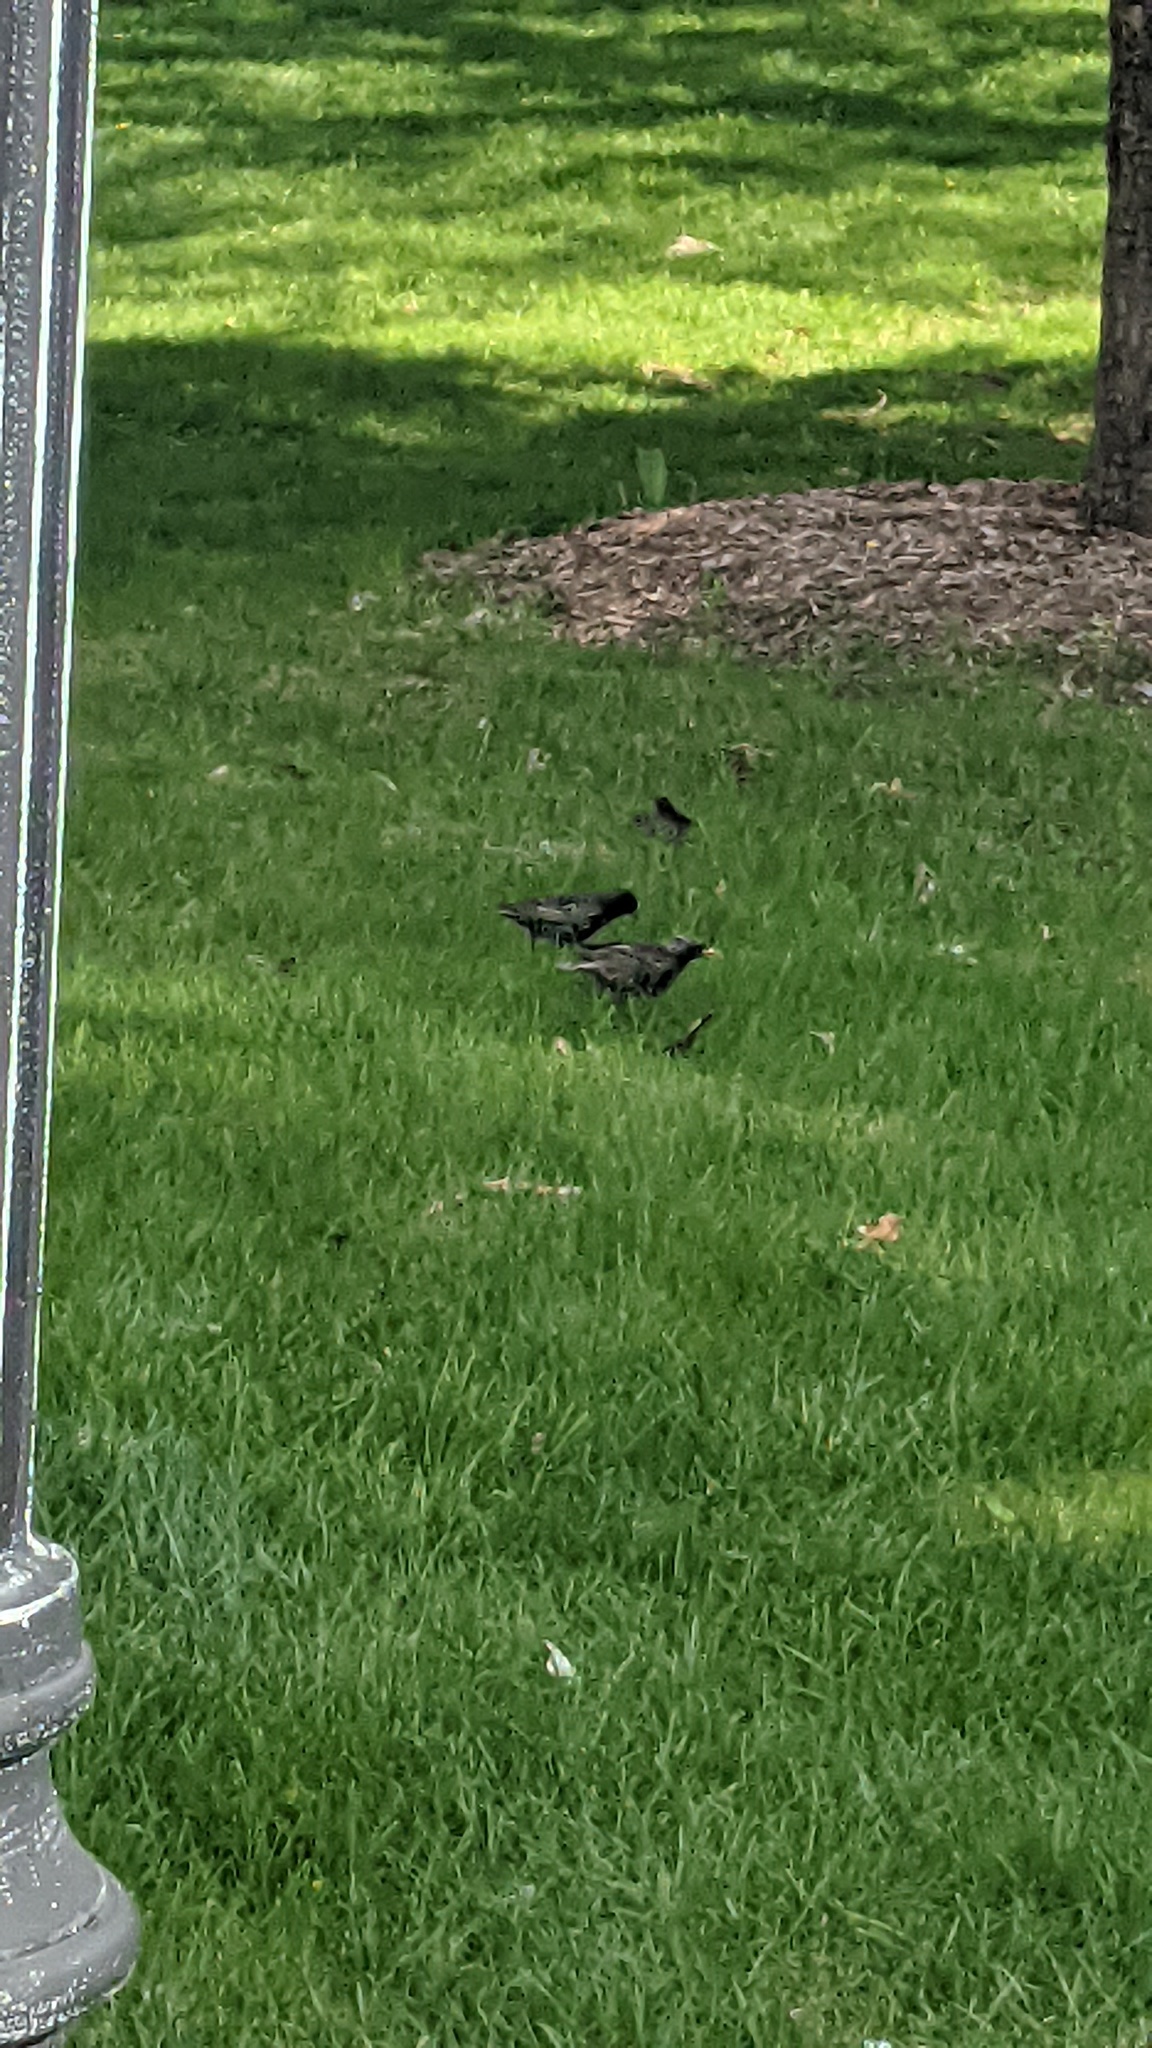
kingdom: Animalia
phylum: Chordata
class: Aves
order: Passeriformes
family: Sturnidae
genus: Sturnus
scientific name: Sturnus vulgaris
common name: Common starling
